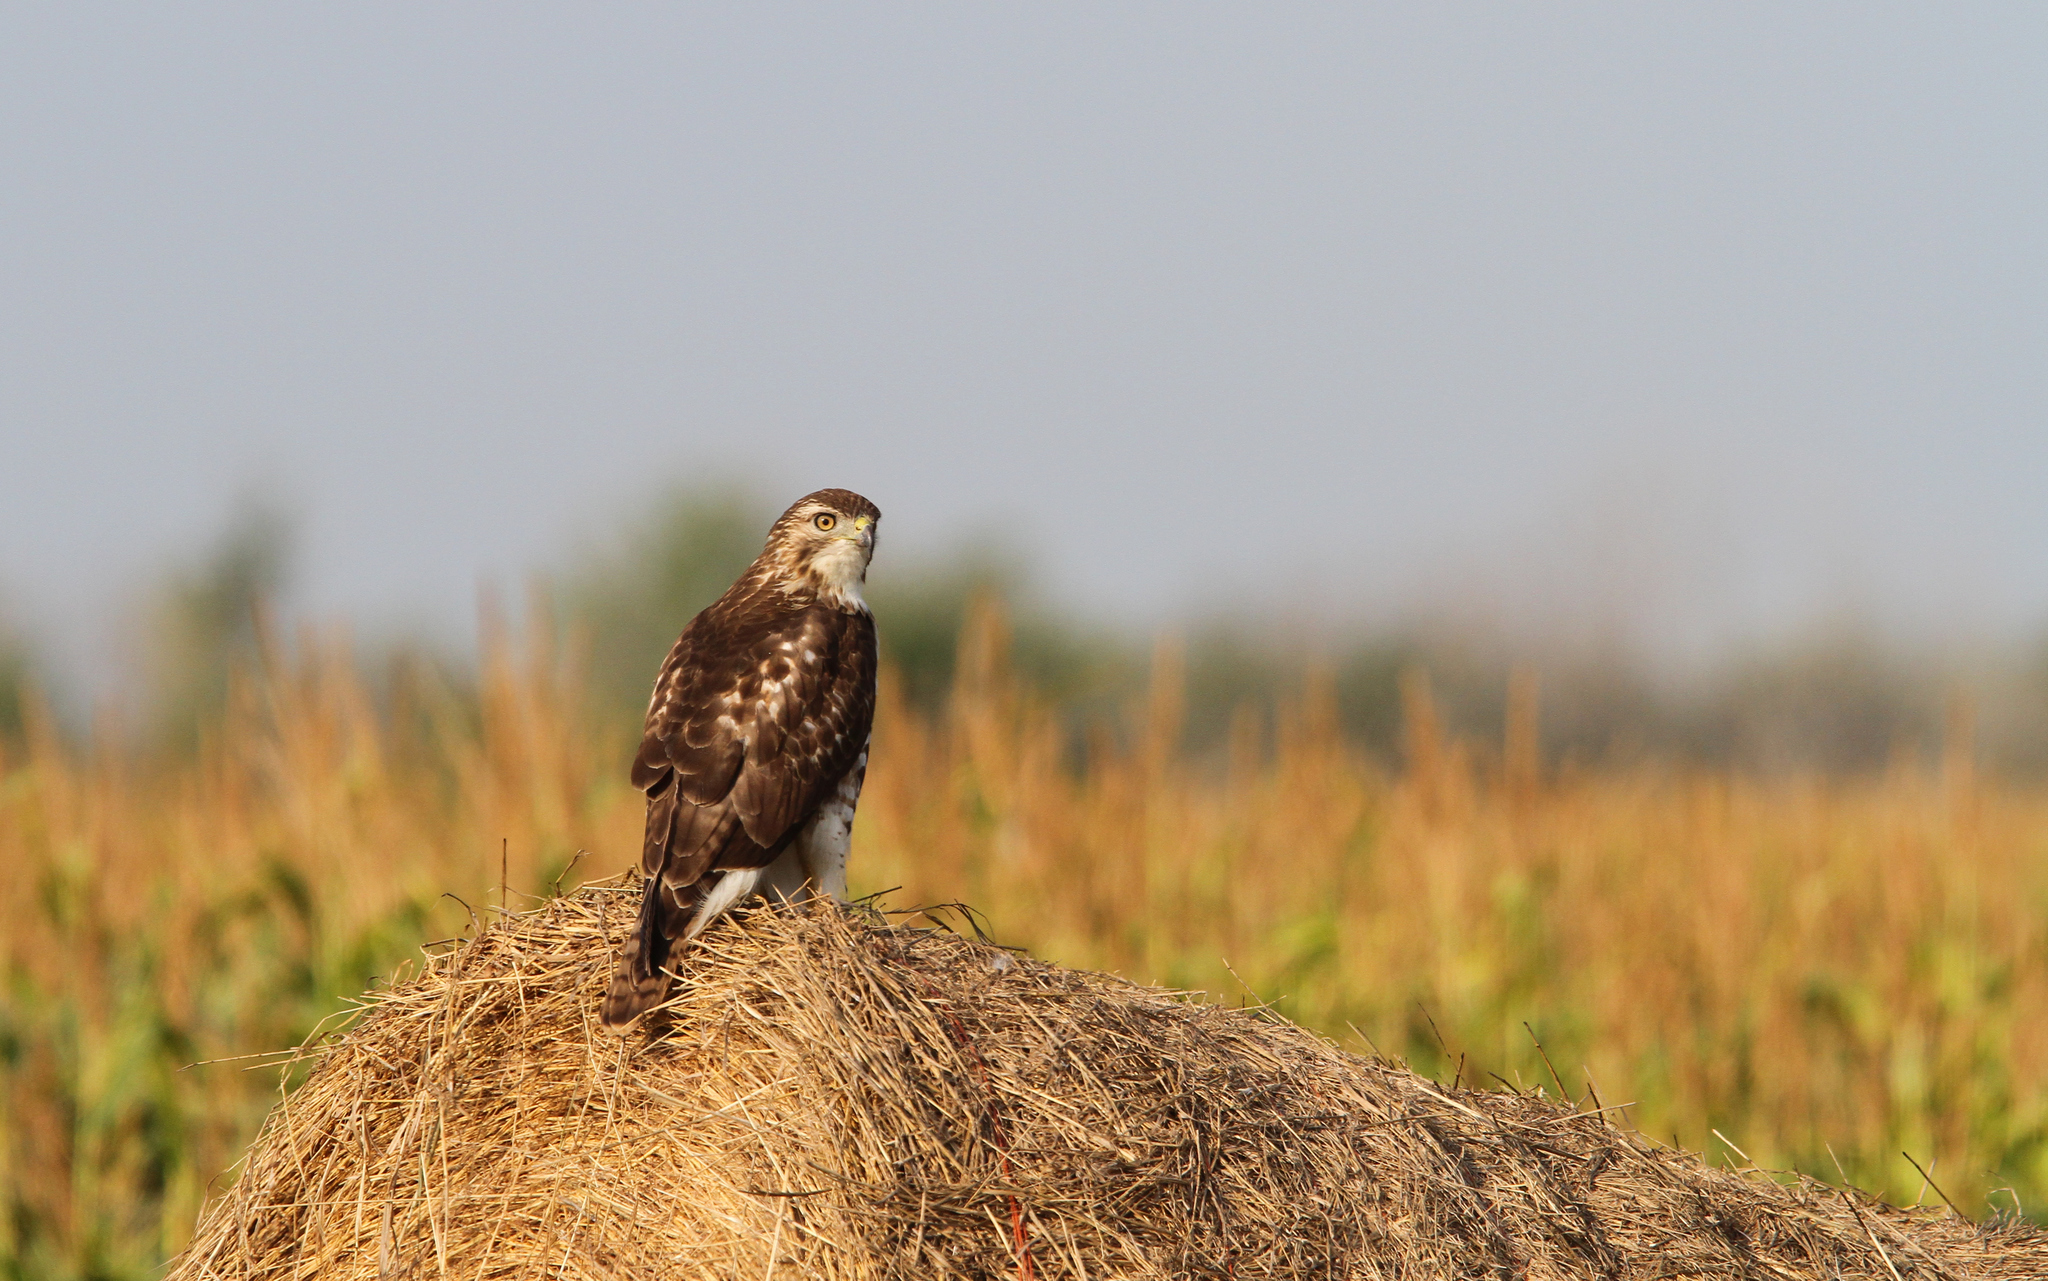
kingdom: Animalia
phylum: Chordata
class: Aves
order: Accipitriformes
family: Accipitridae
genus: Buteo
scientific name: Buteo jamaicensis
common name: Red-tailed hawk
